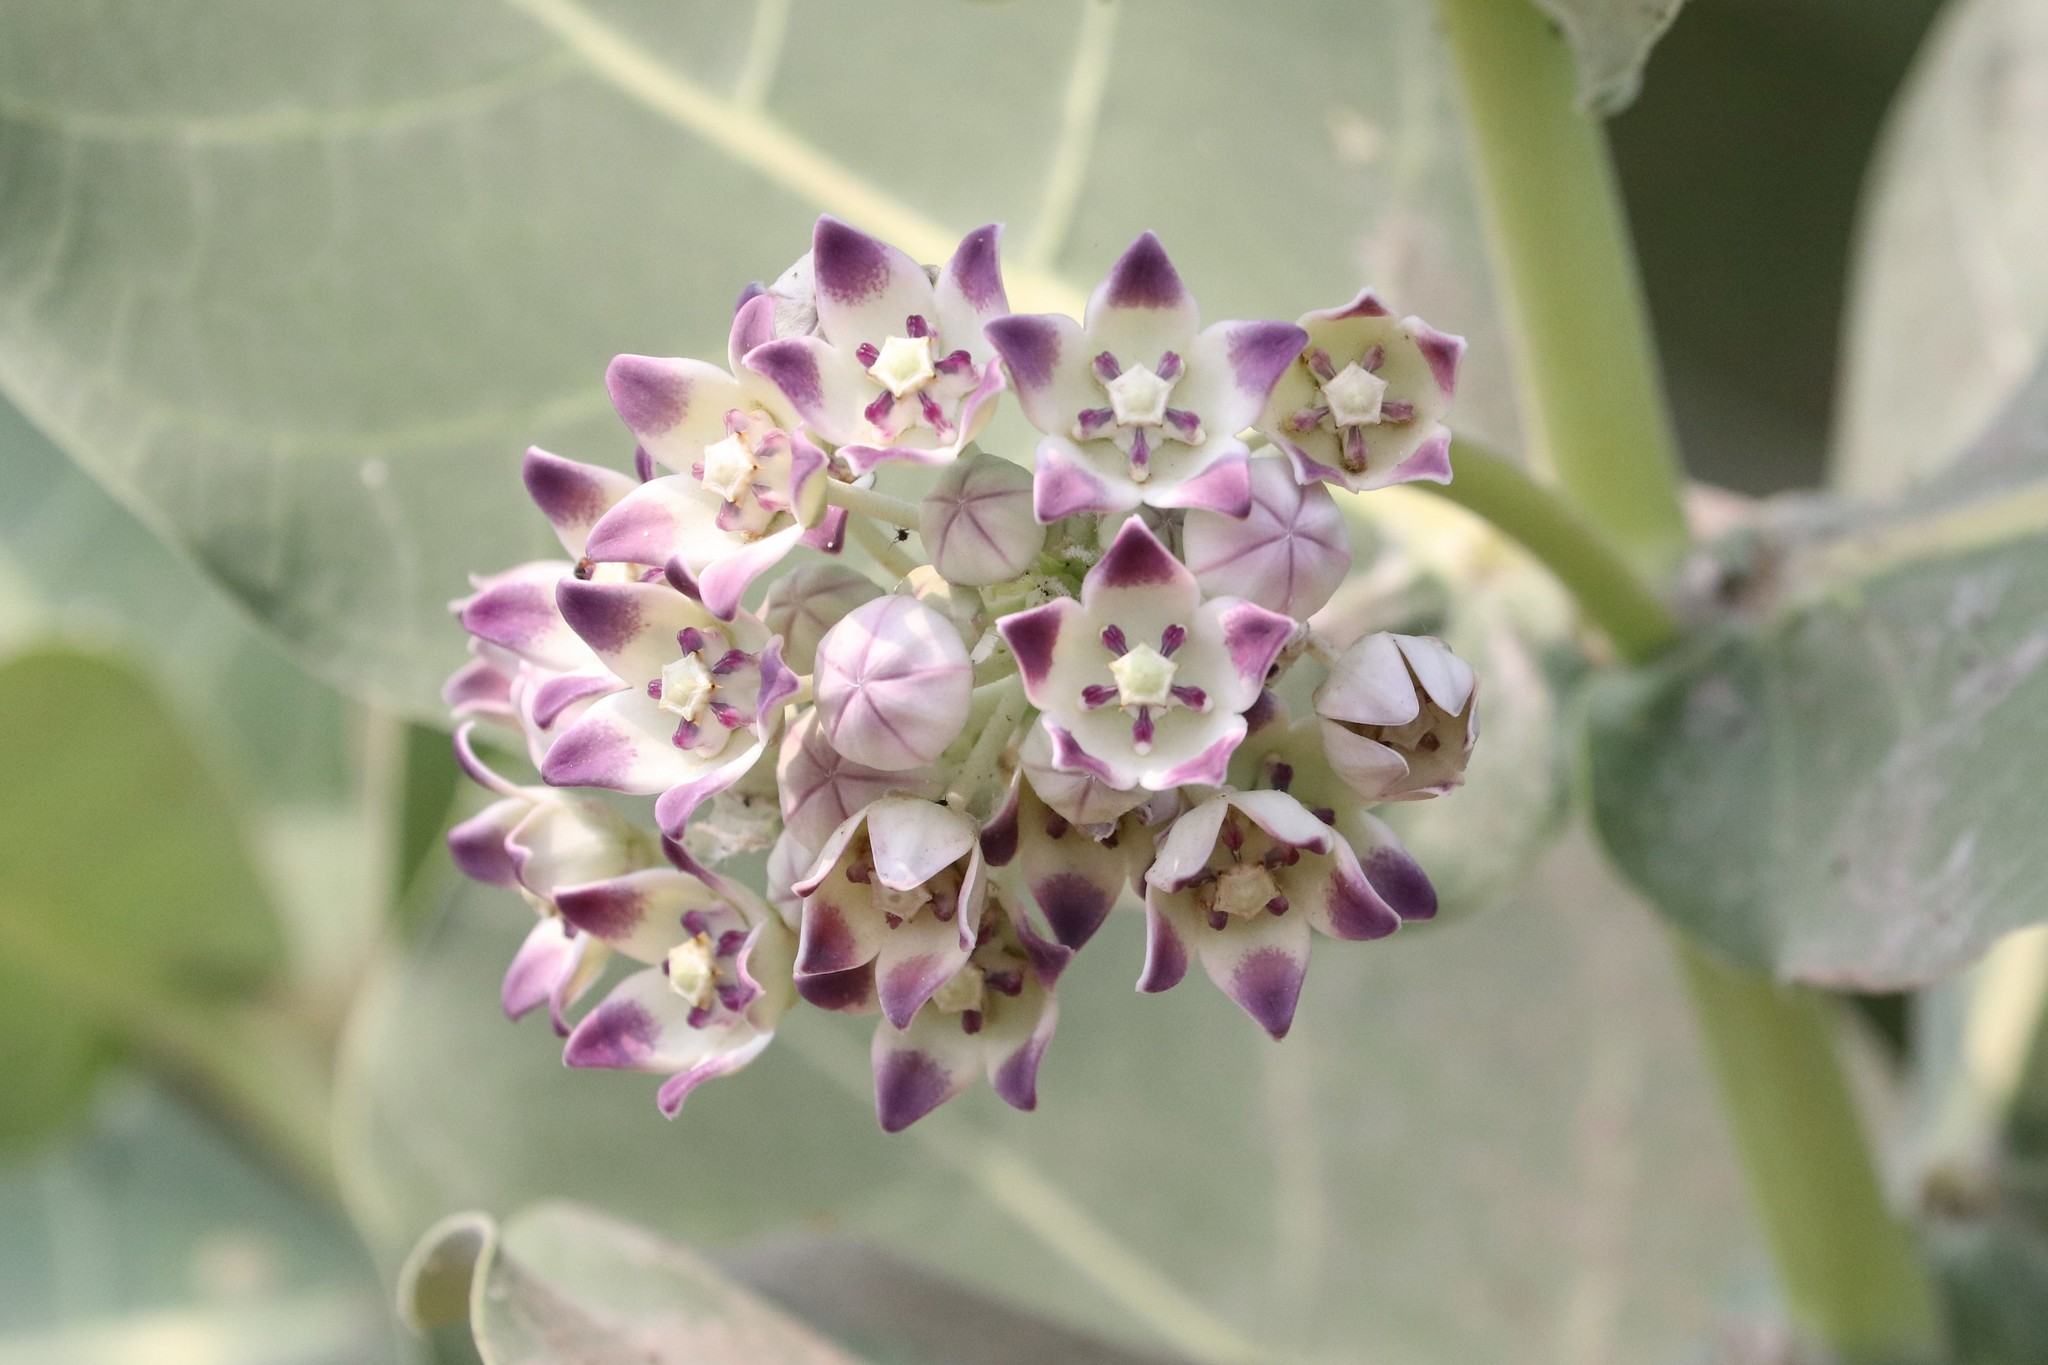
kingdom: Plantae
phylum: Tracheophyta
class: Magnoliopsida
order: Gentianales
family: Apocynaceae
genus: Calotropis
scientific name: Calotropis procera
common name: Roostertree
